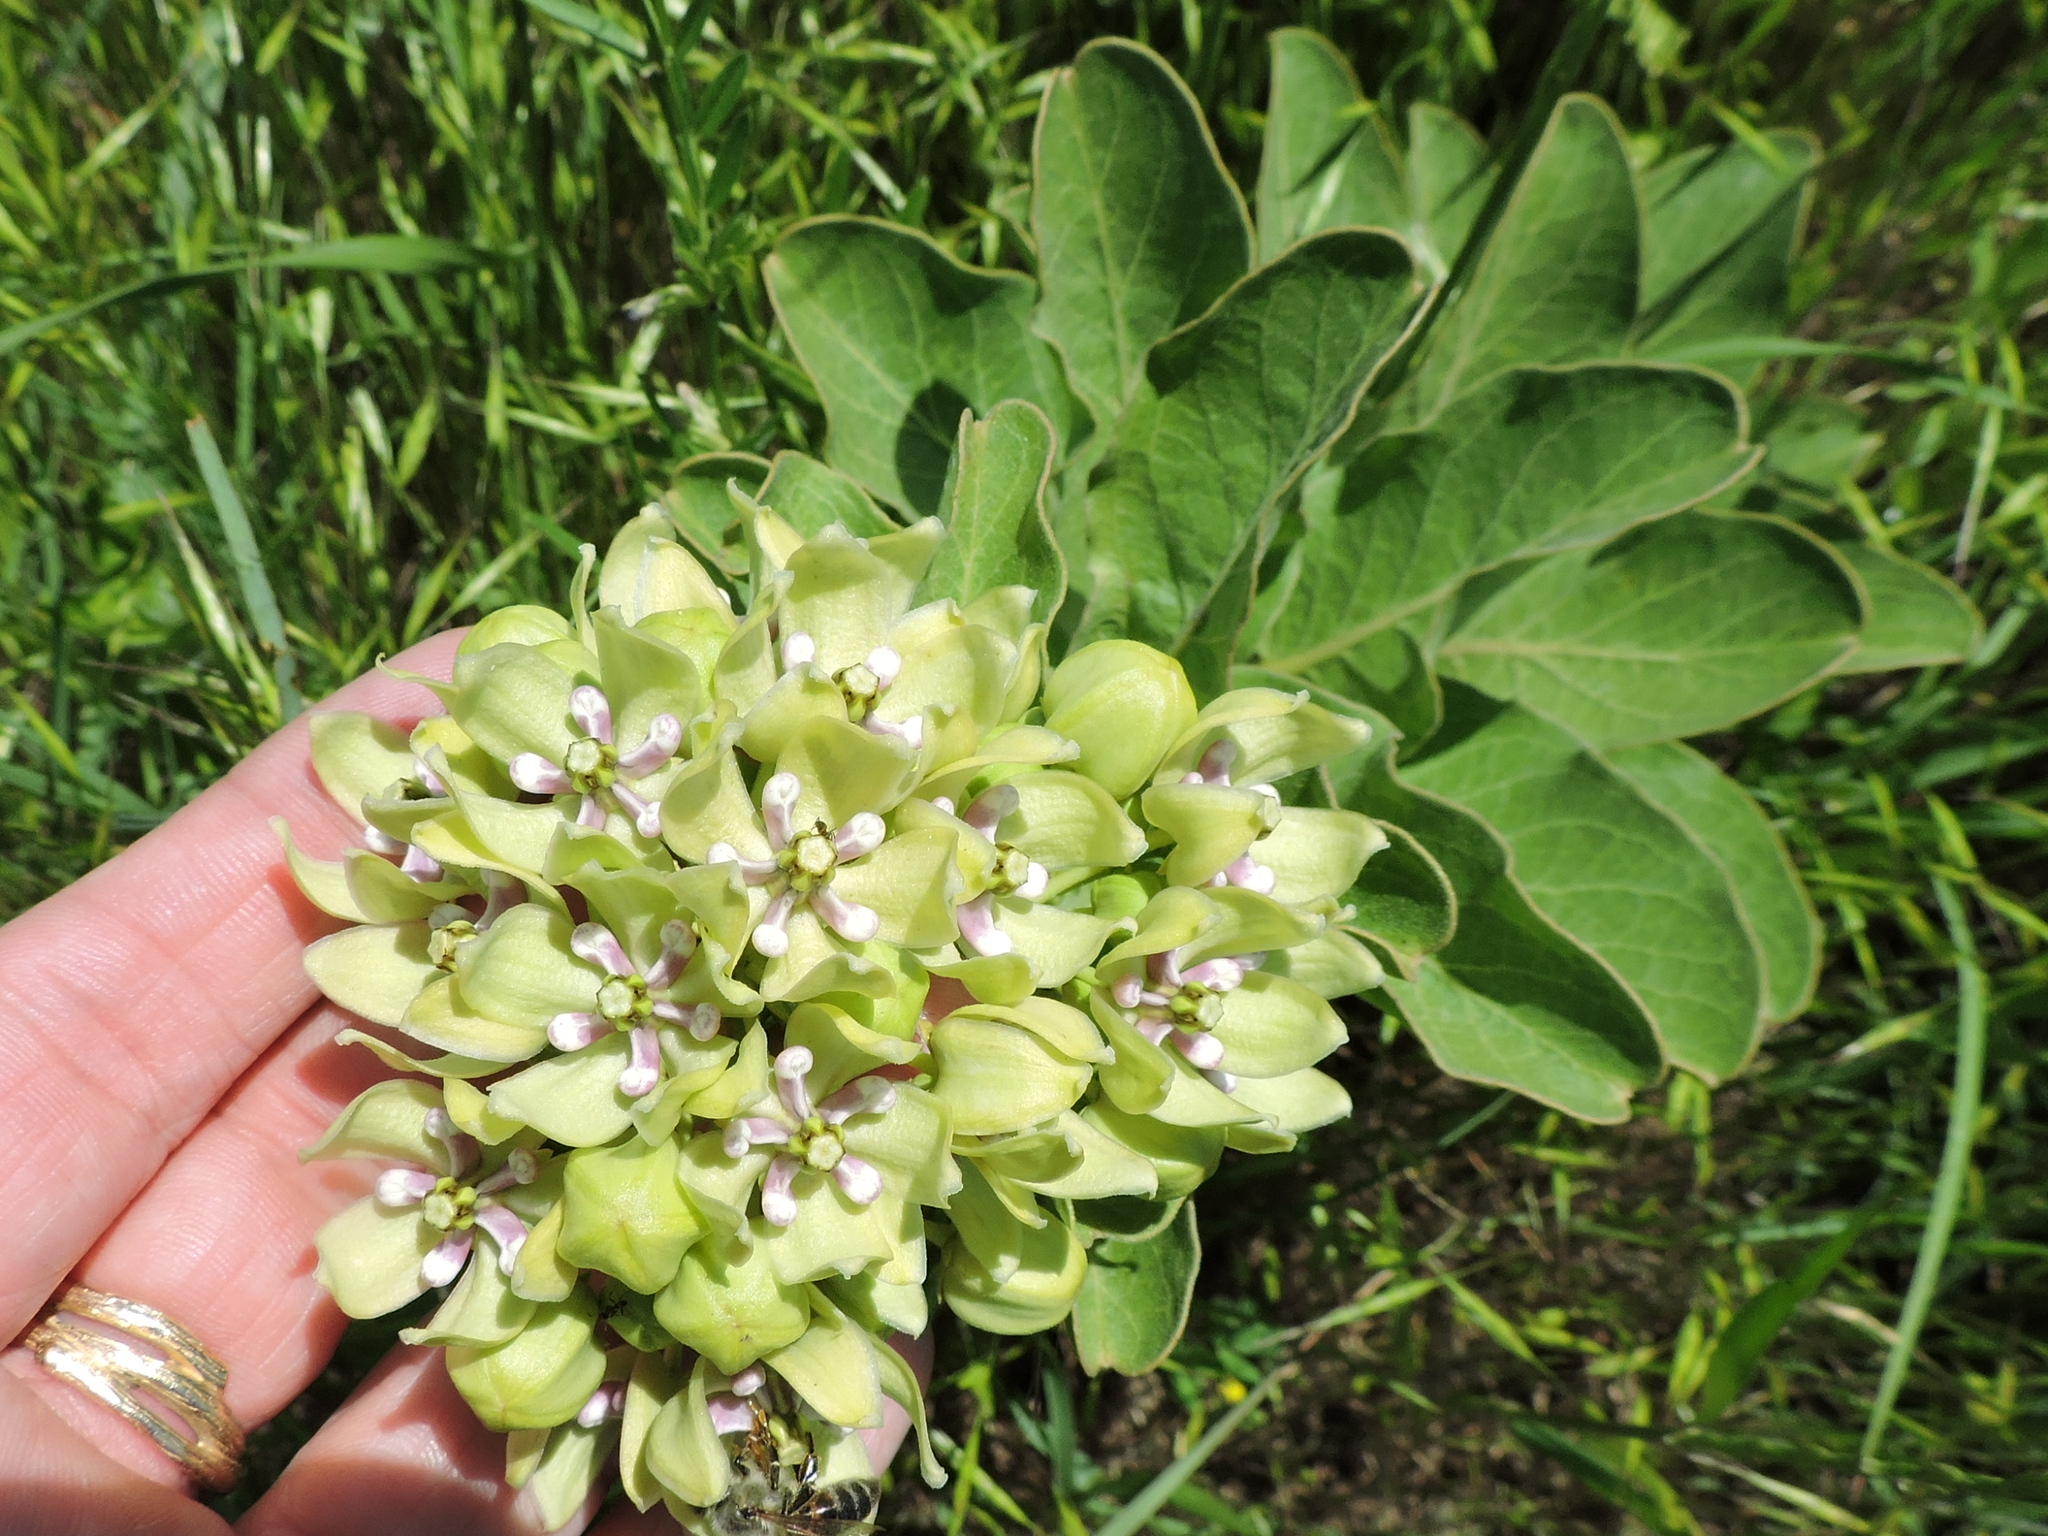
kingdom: Plantae
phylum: Tracheophyta
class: Magnoliopsida
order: Gentianales
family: Apocynaceae
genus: Asclepias
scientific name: Asclepias viridis
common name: Antelope-horns
